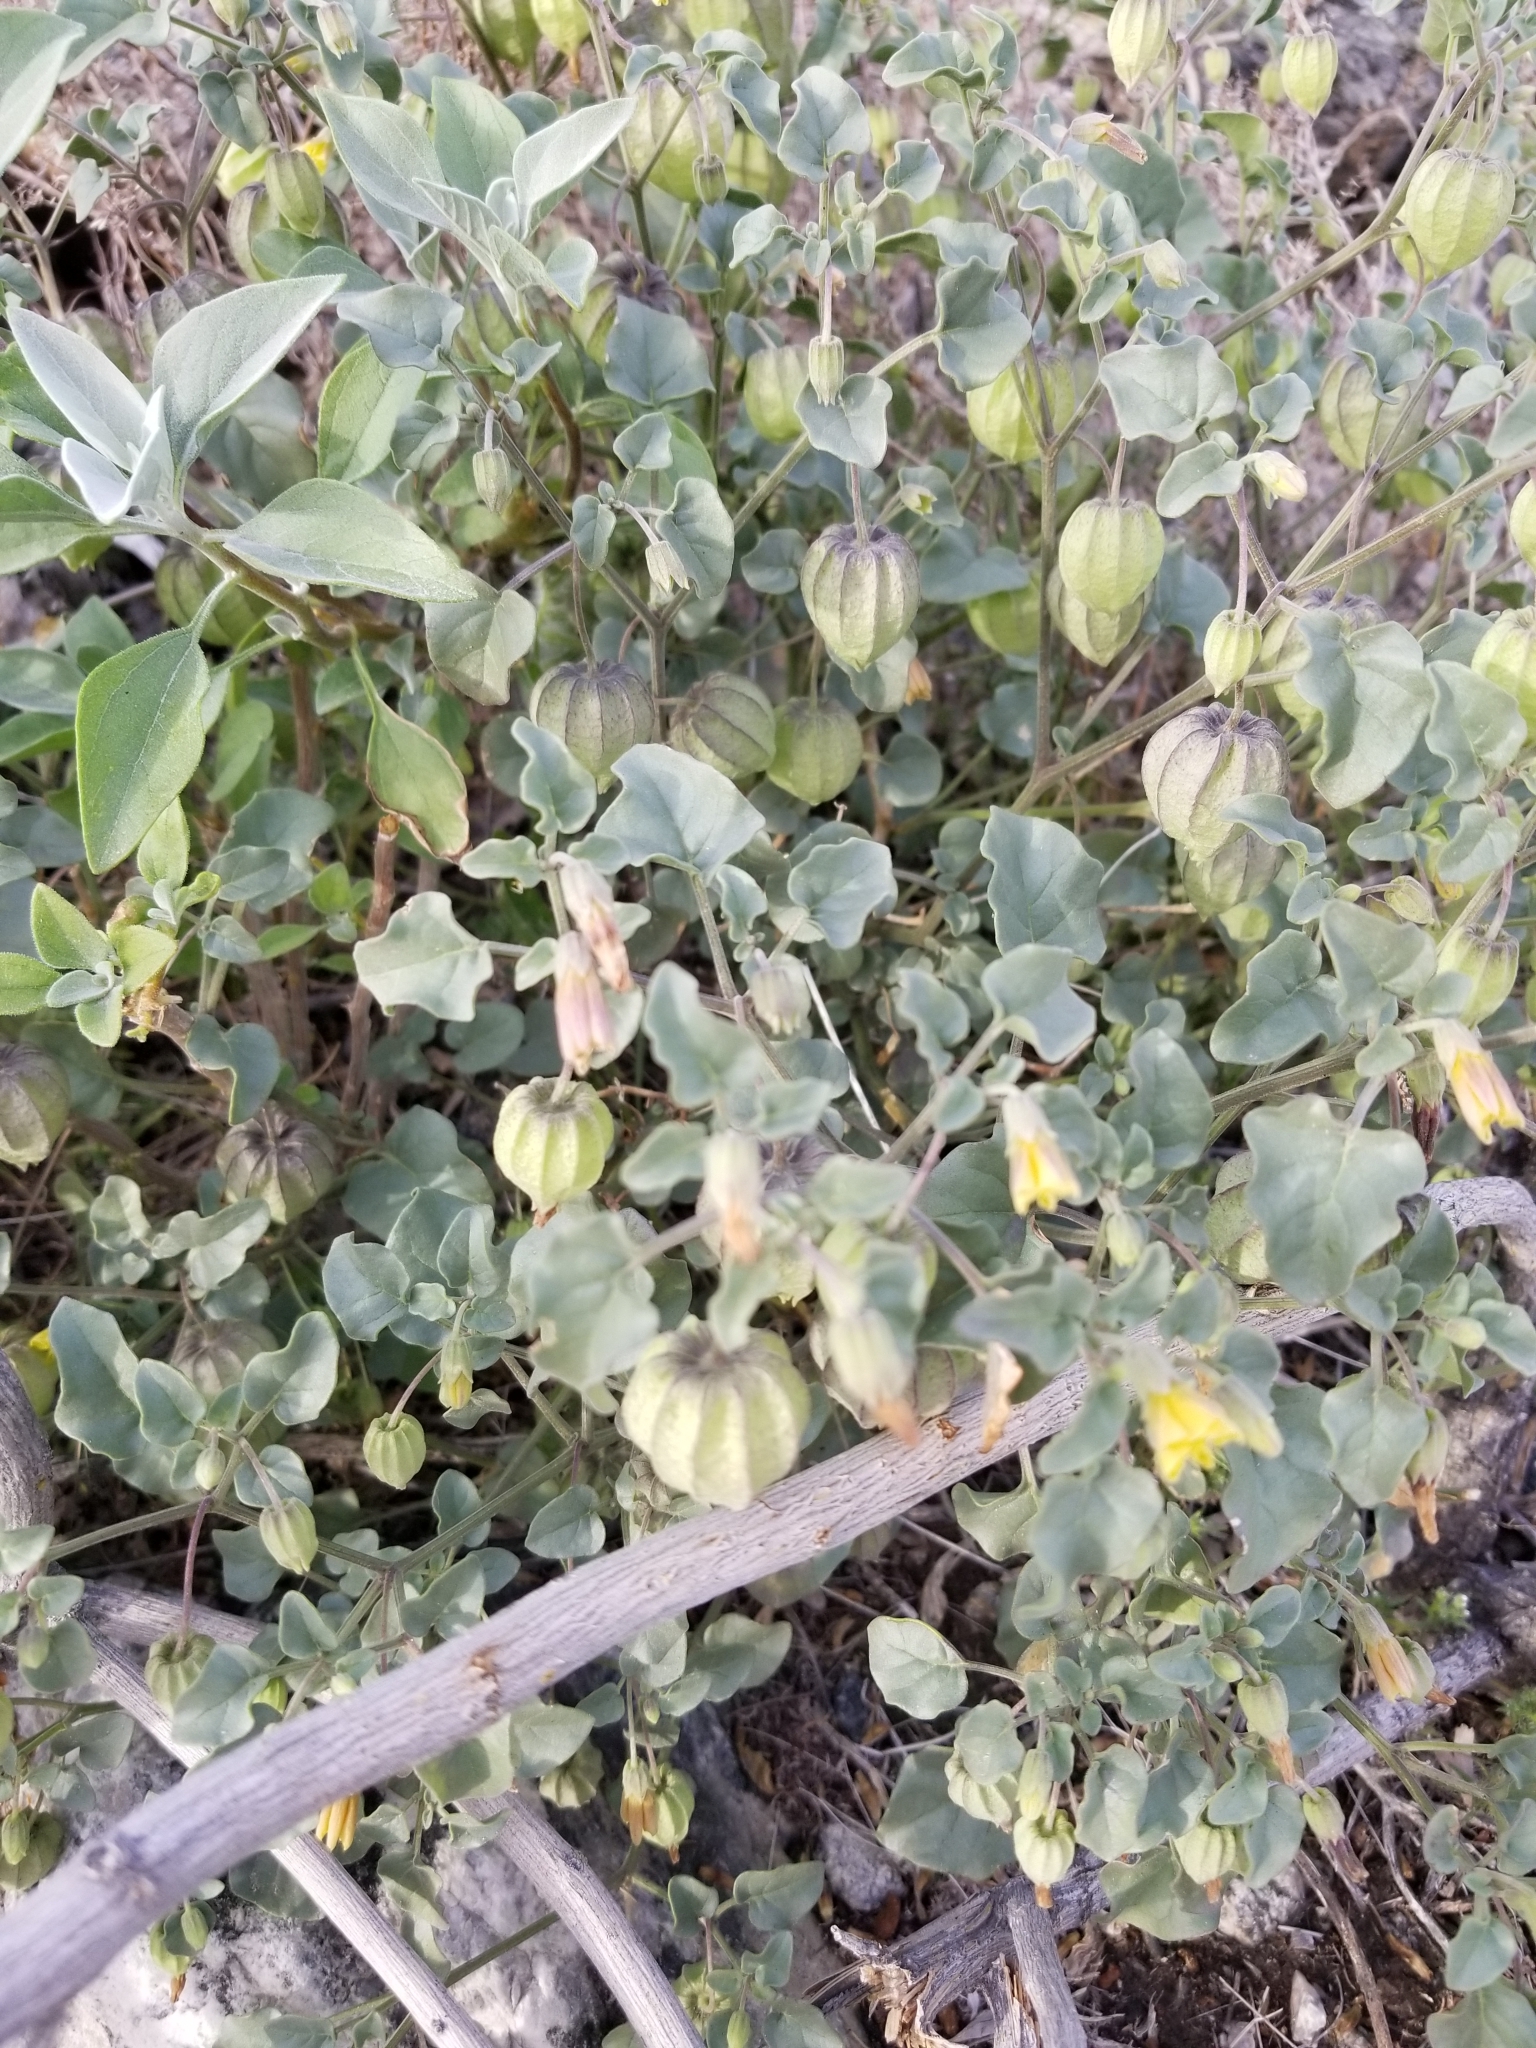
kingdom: Plantae
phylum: Tracheophyta
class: Magnoliopsida
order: Solanales
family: Solanaceae
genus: Physalis
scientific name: Physalis crassifolia
